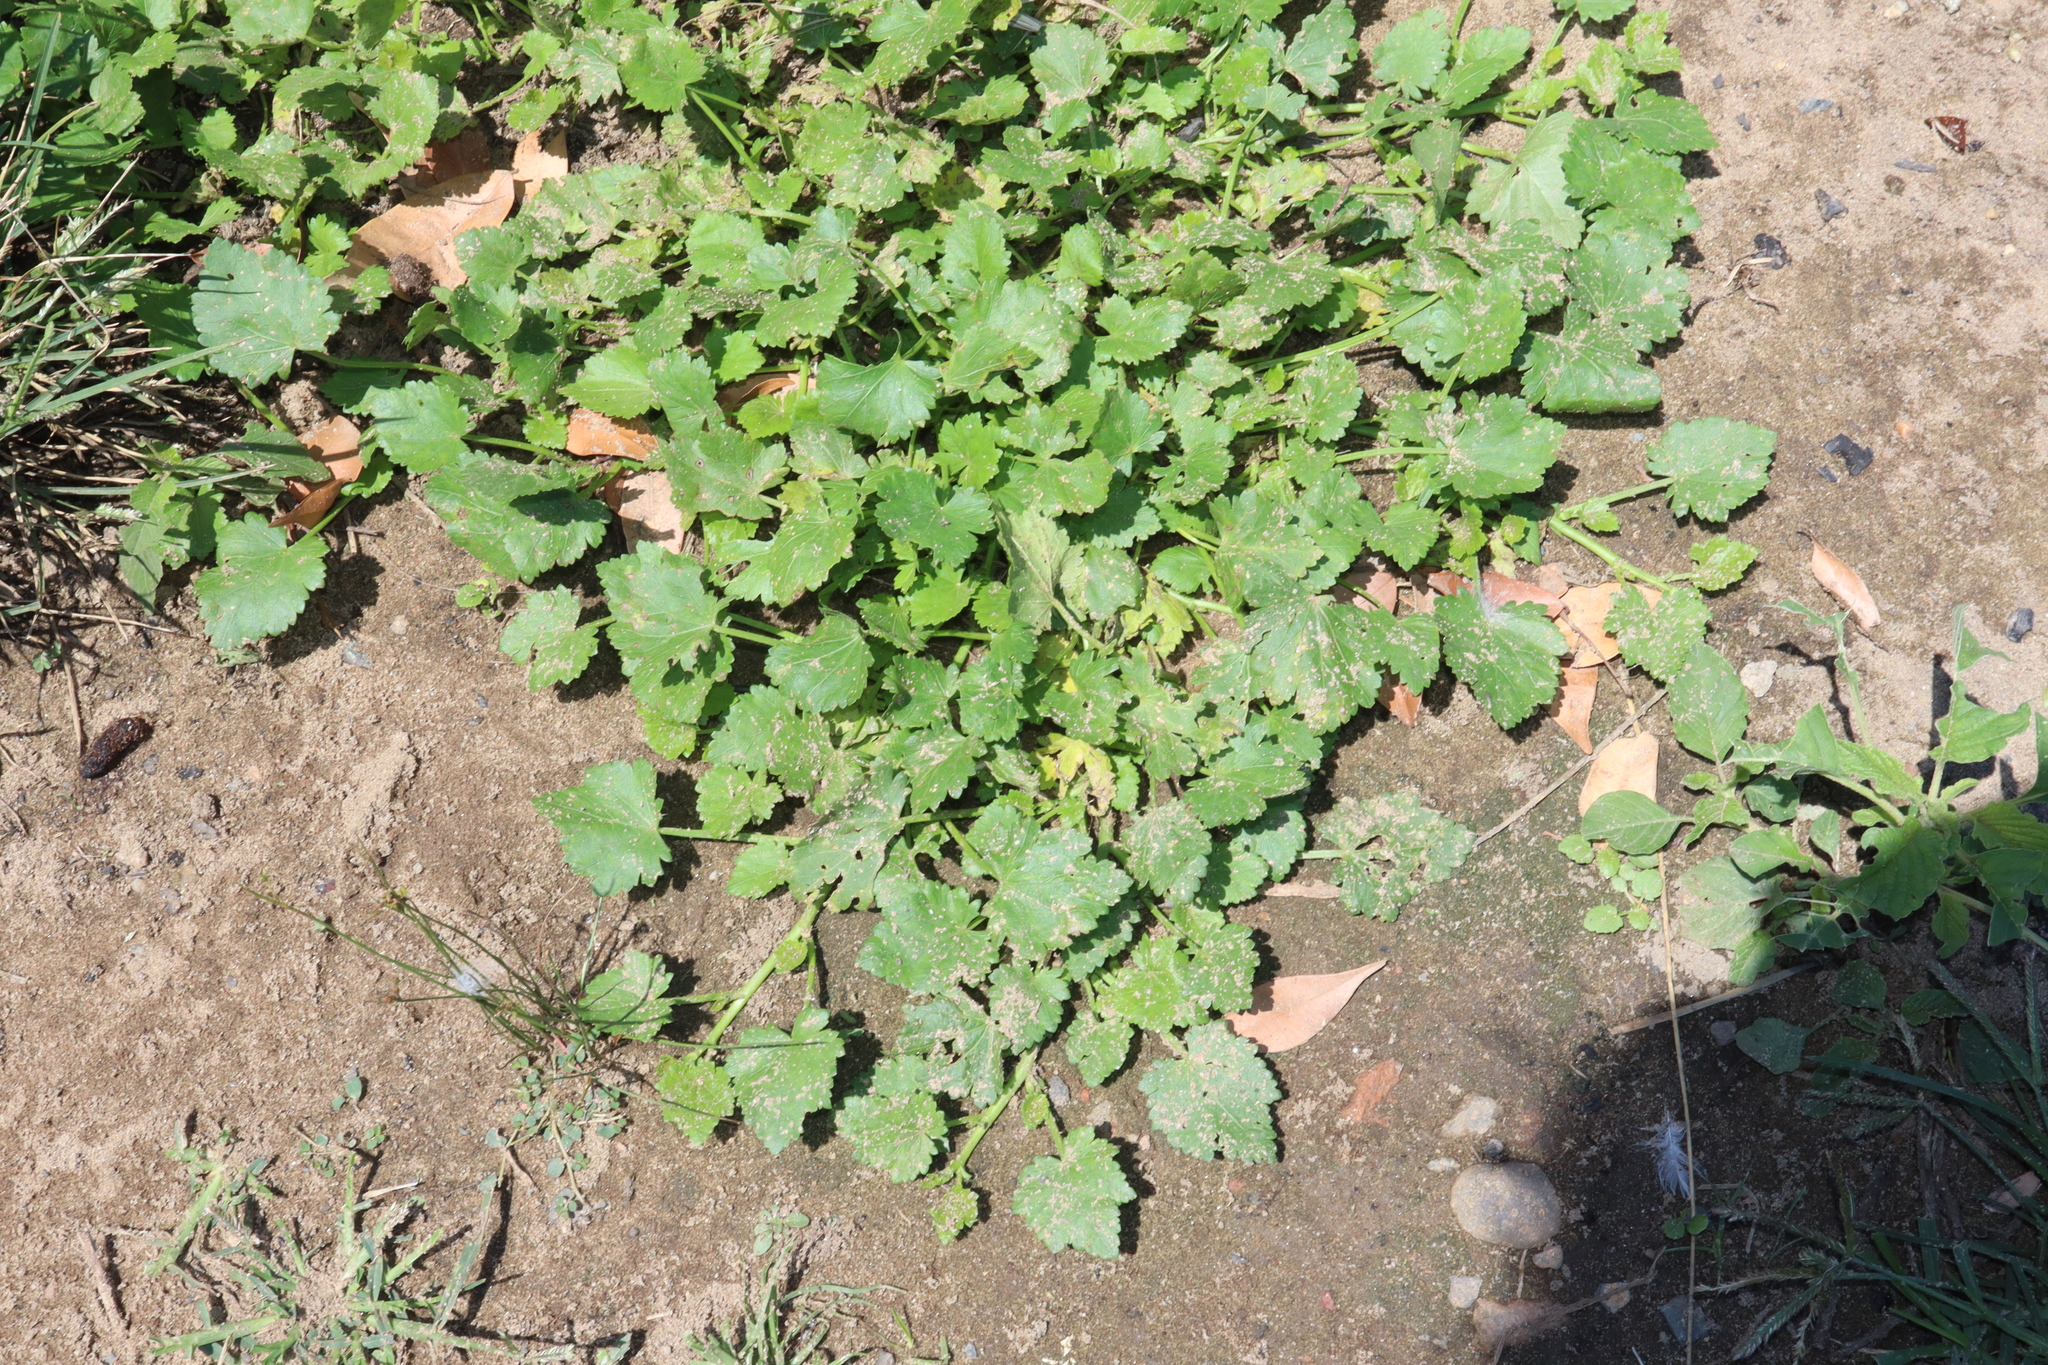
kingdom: Plantae
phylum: Tracheophyta
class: Magnoliopsida
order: Malvales
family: Malvaceae
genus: Modiola
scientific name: Modiola caroliniana
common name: Carolina bristlemallow
